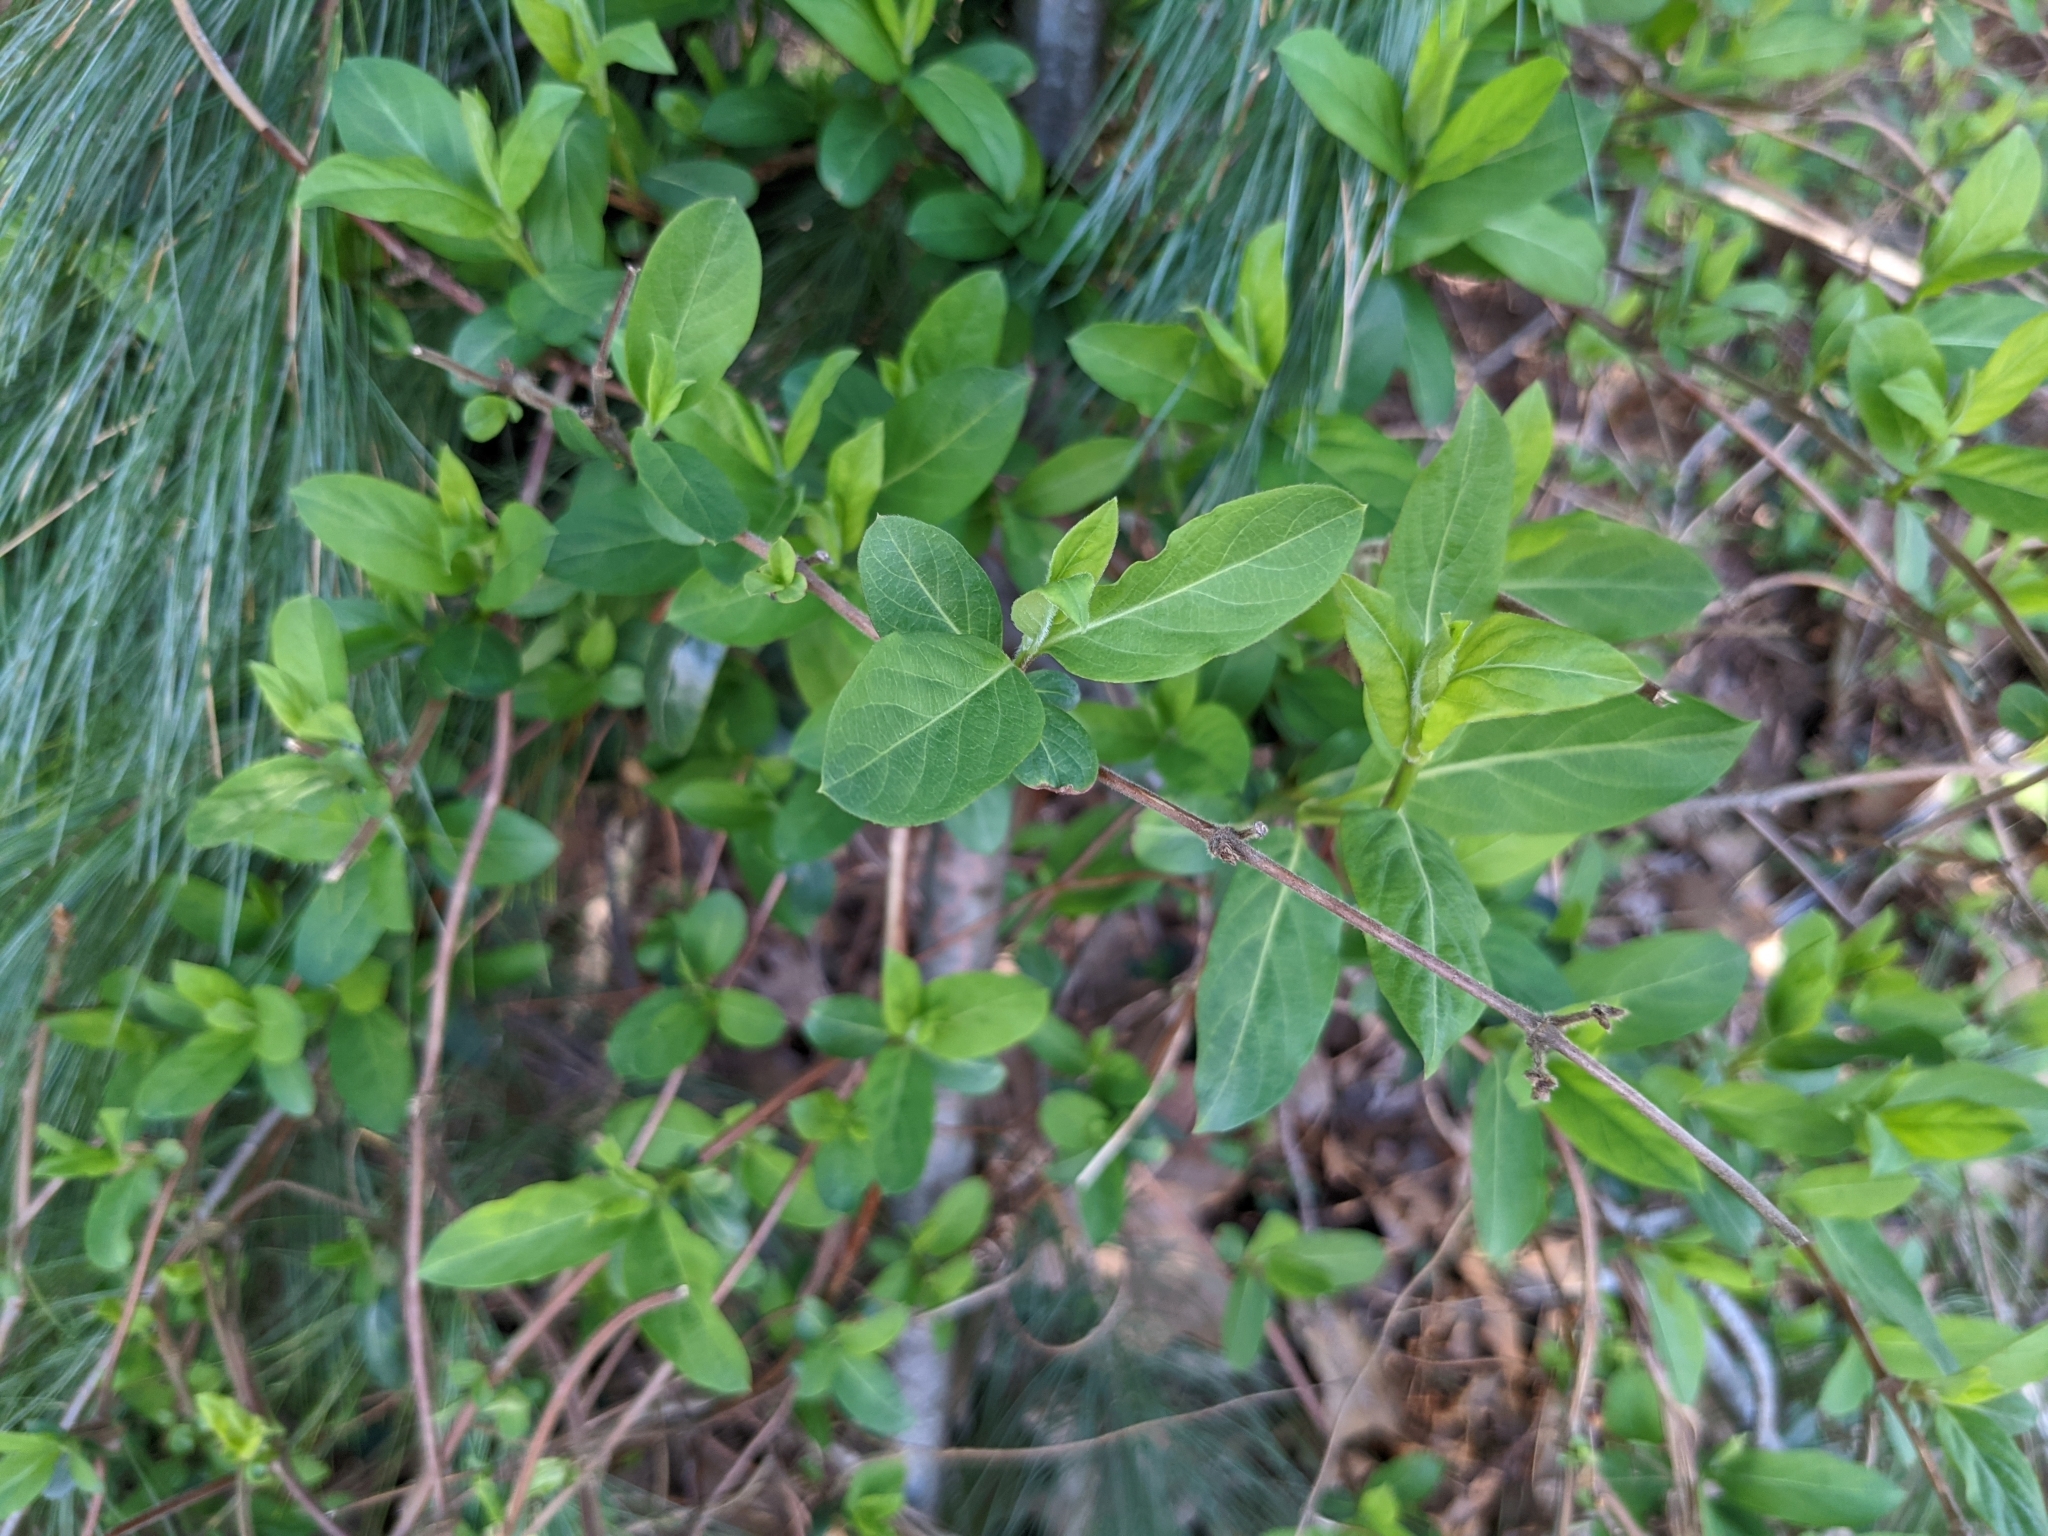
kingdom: Plantae
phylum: Tracheophyta
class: Magnoliopsida
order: Dipsacales
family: Caprifoliaceae
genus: Lonicera
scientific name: Lonicera japonica
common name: Japanese honeysuckle
